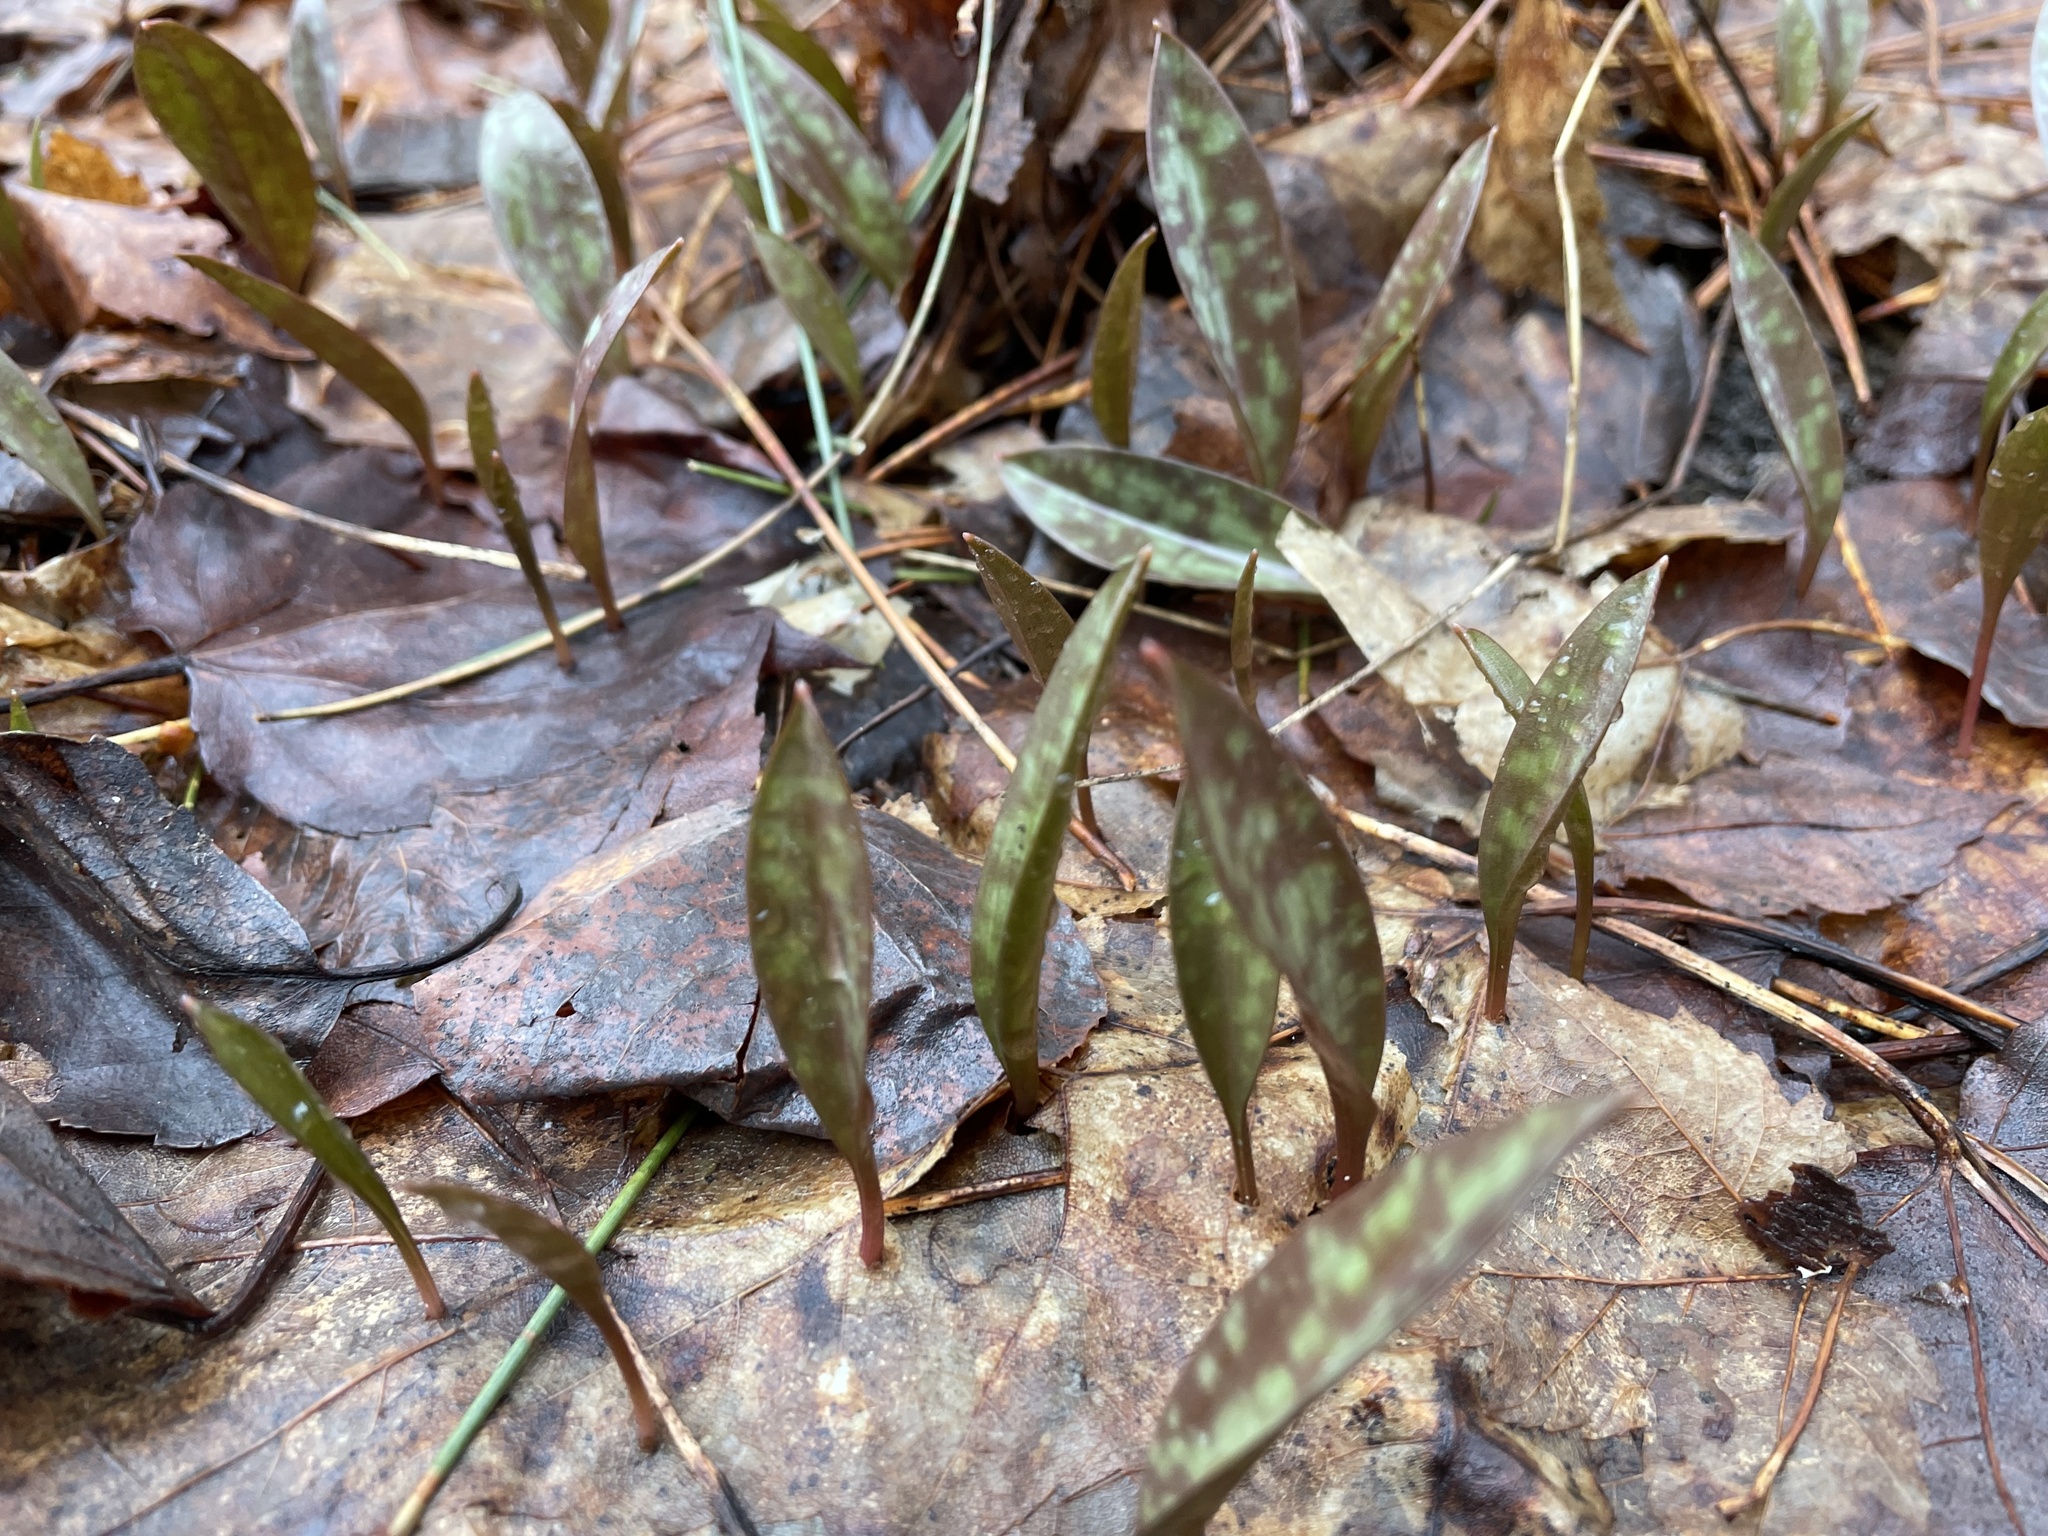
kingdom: Plantae
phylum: Tracheophyta
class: Liliopsida
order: Liliales
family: Liliaceae
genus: Erythronium
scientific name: Erythronium americanum
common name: Yellow adder's-tongue
